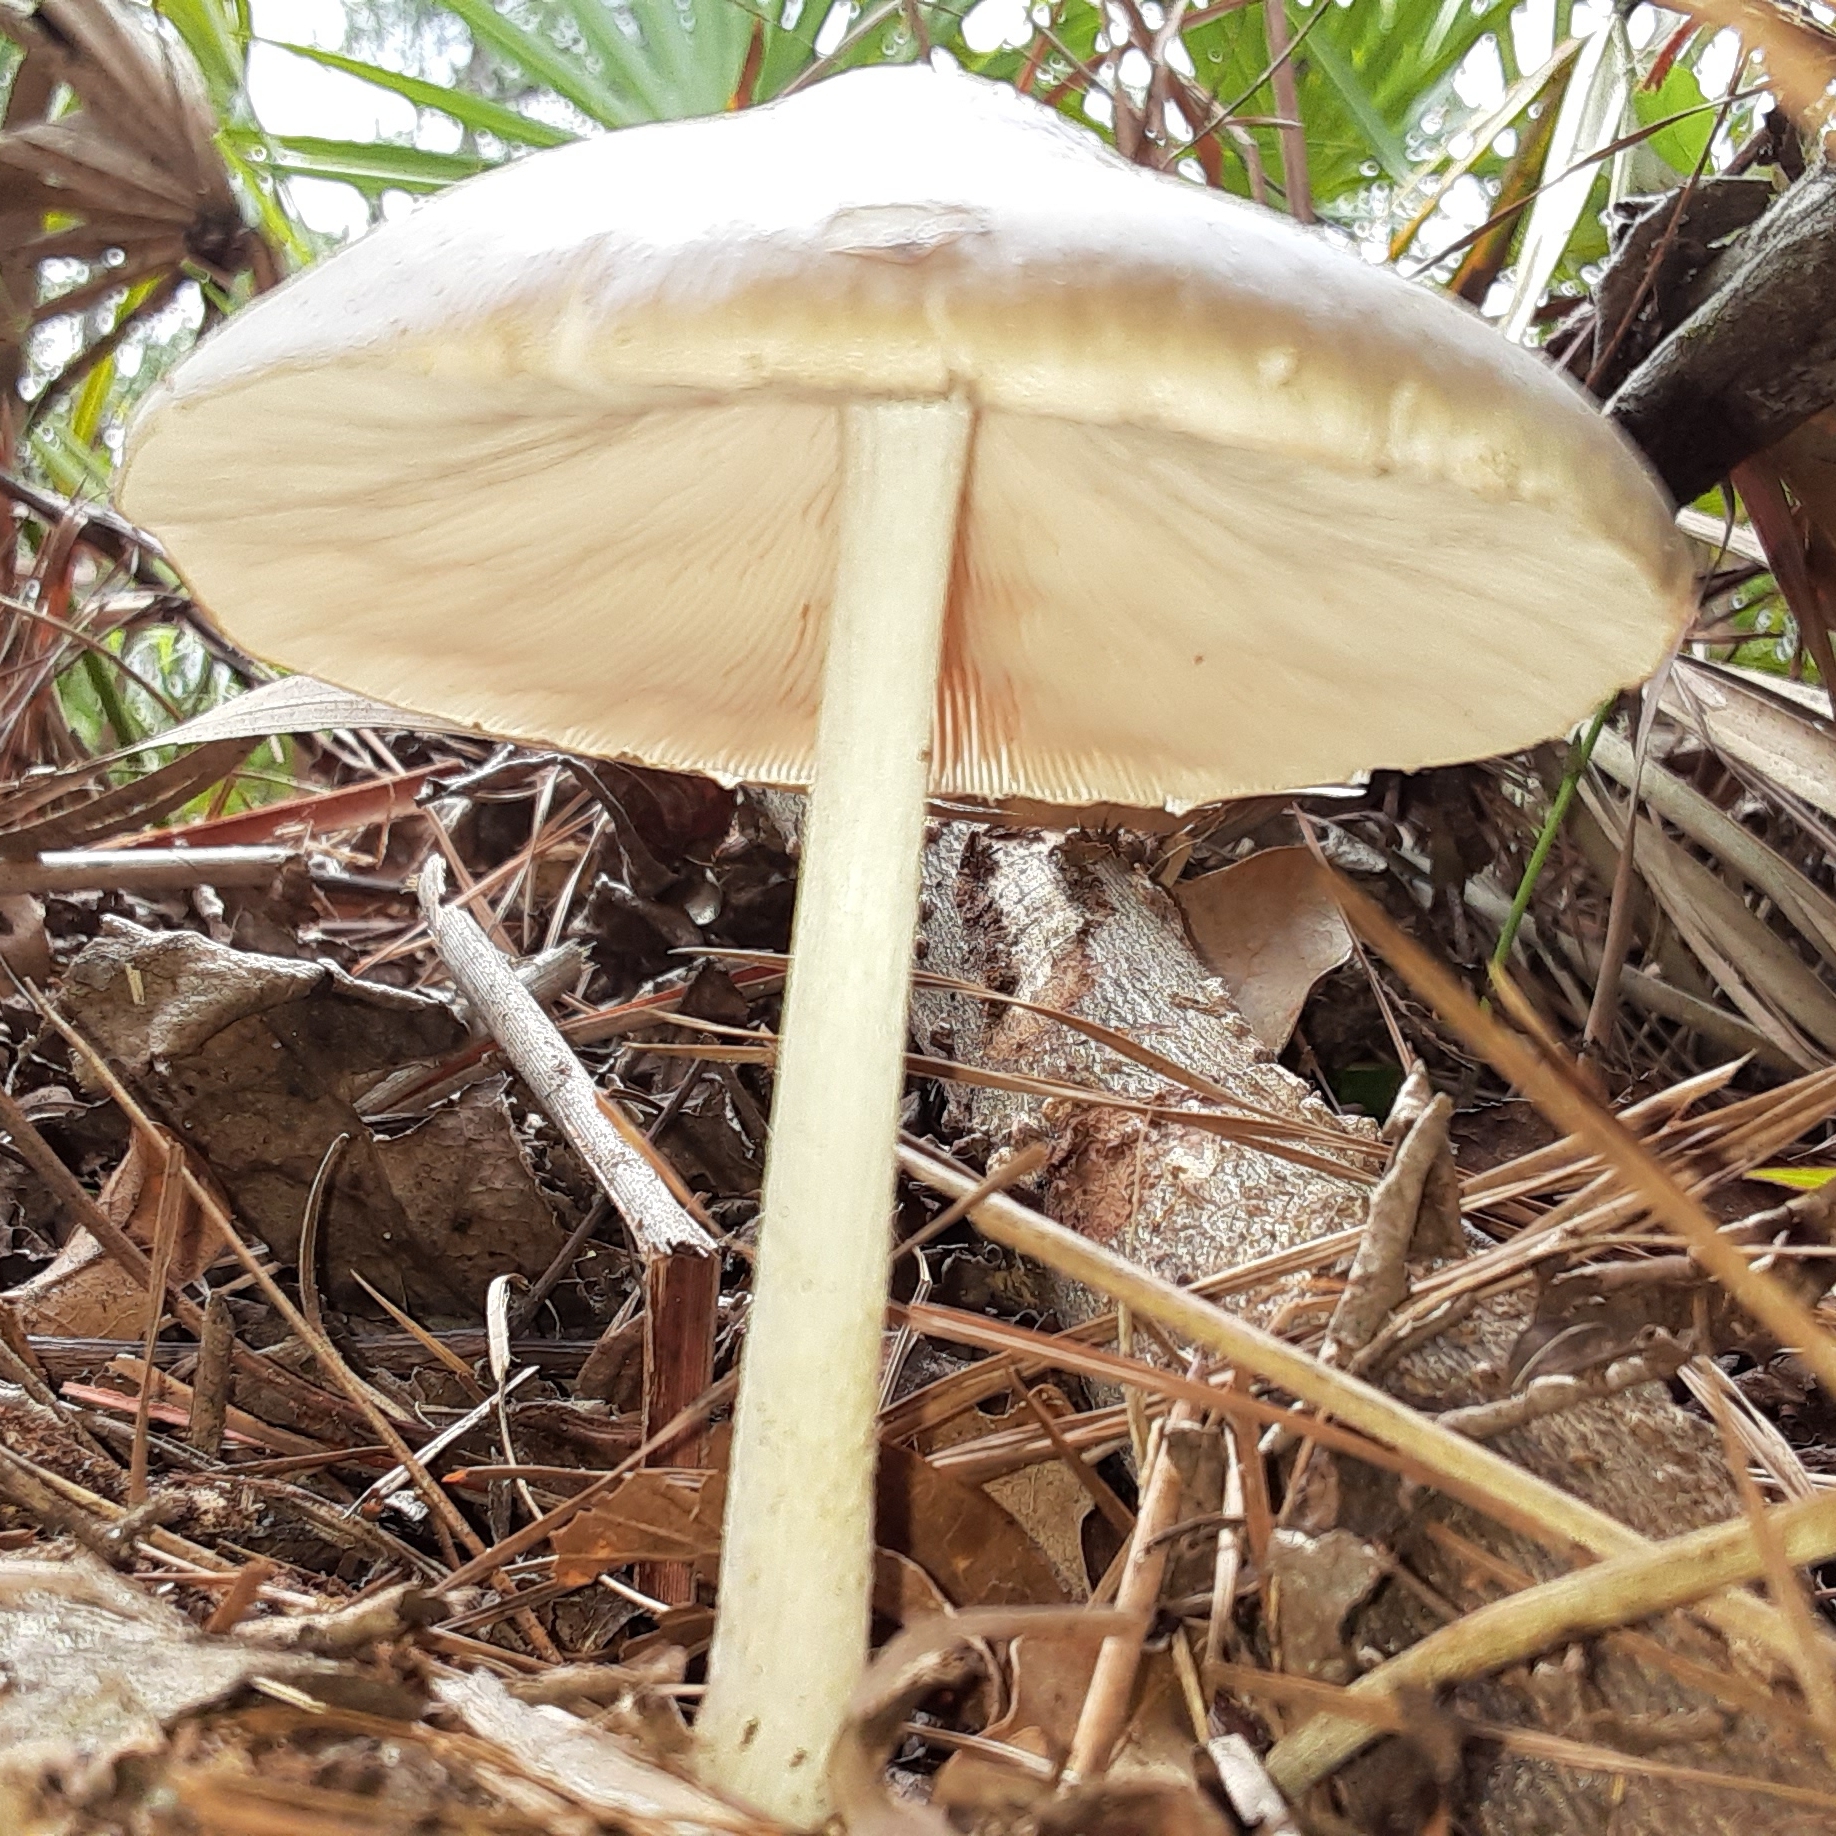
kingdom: Fungi
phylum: Basidiomycota
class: Agaricomycetes
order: Agaricales
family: Pluteaceae
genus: Pluteus
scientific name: Pluteus cervinus
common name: Deer shield
